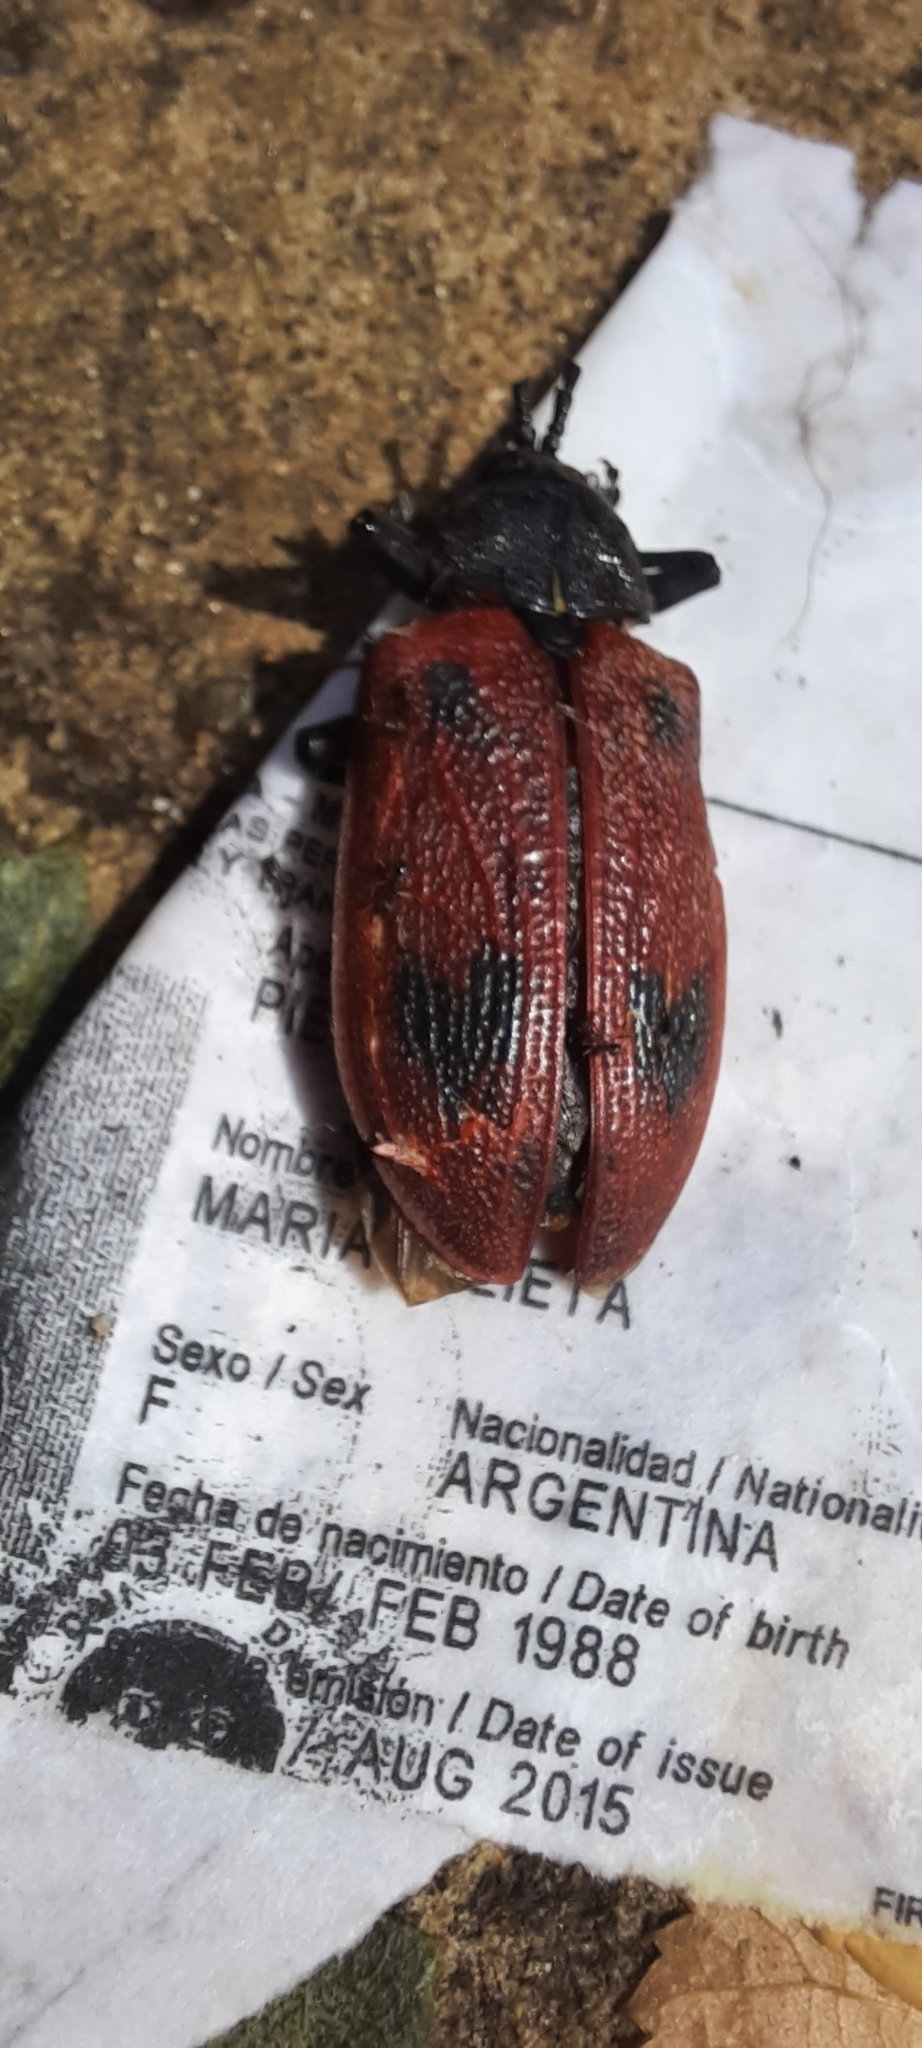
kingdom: Animalia
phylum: Arthropoda
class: Insecta
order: Coleoptera
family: Chrysomelidae
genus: Coraliomela
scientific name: Coraliomela quadrimaculata
